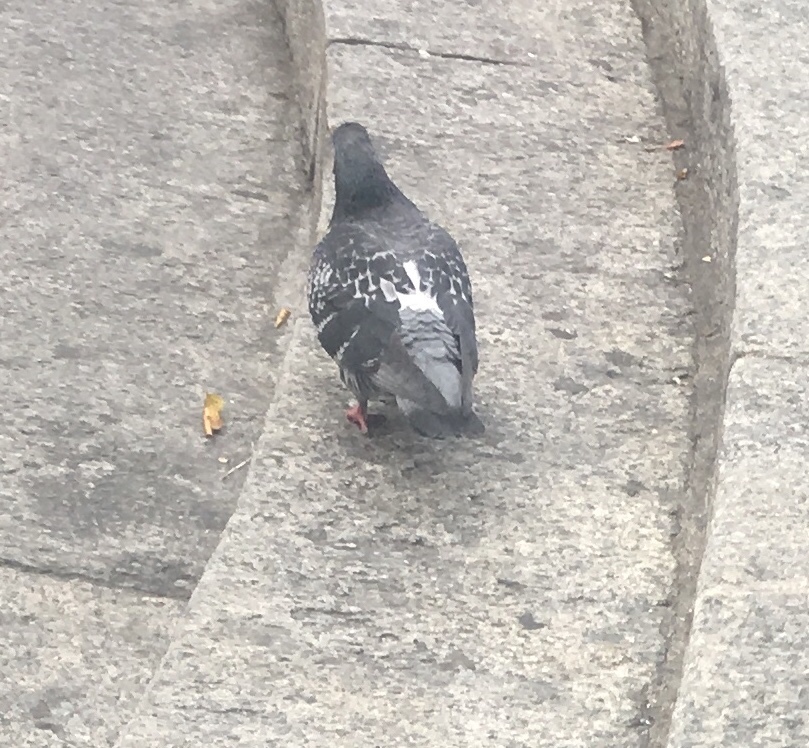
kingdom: Animalia
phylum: Chordata
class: Aves
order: Columbiformes
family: Columbidae
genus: Columba
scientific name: Columba livia
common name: Rock pigeon
